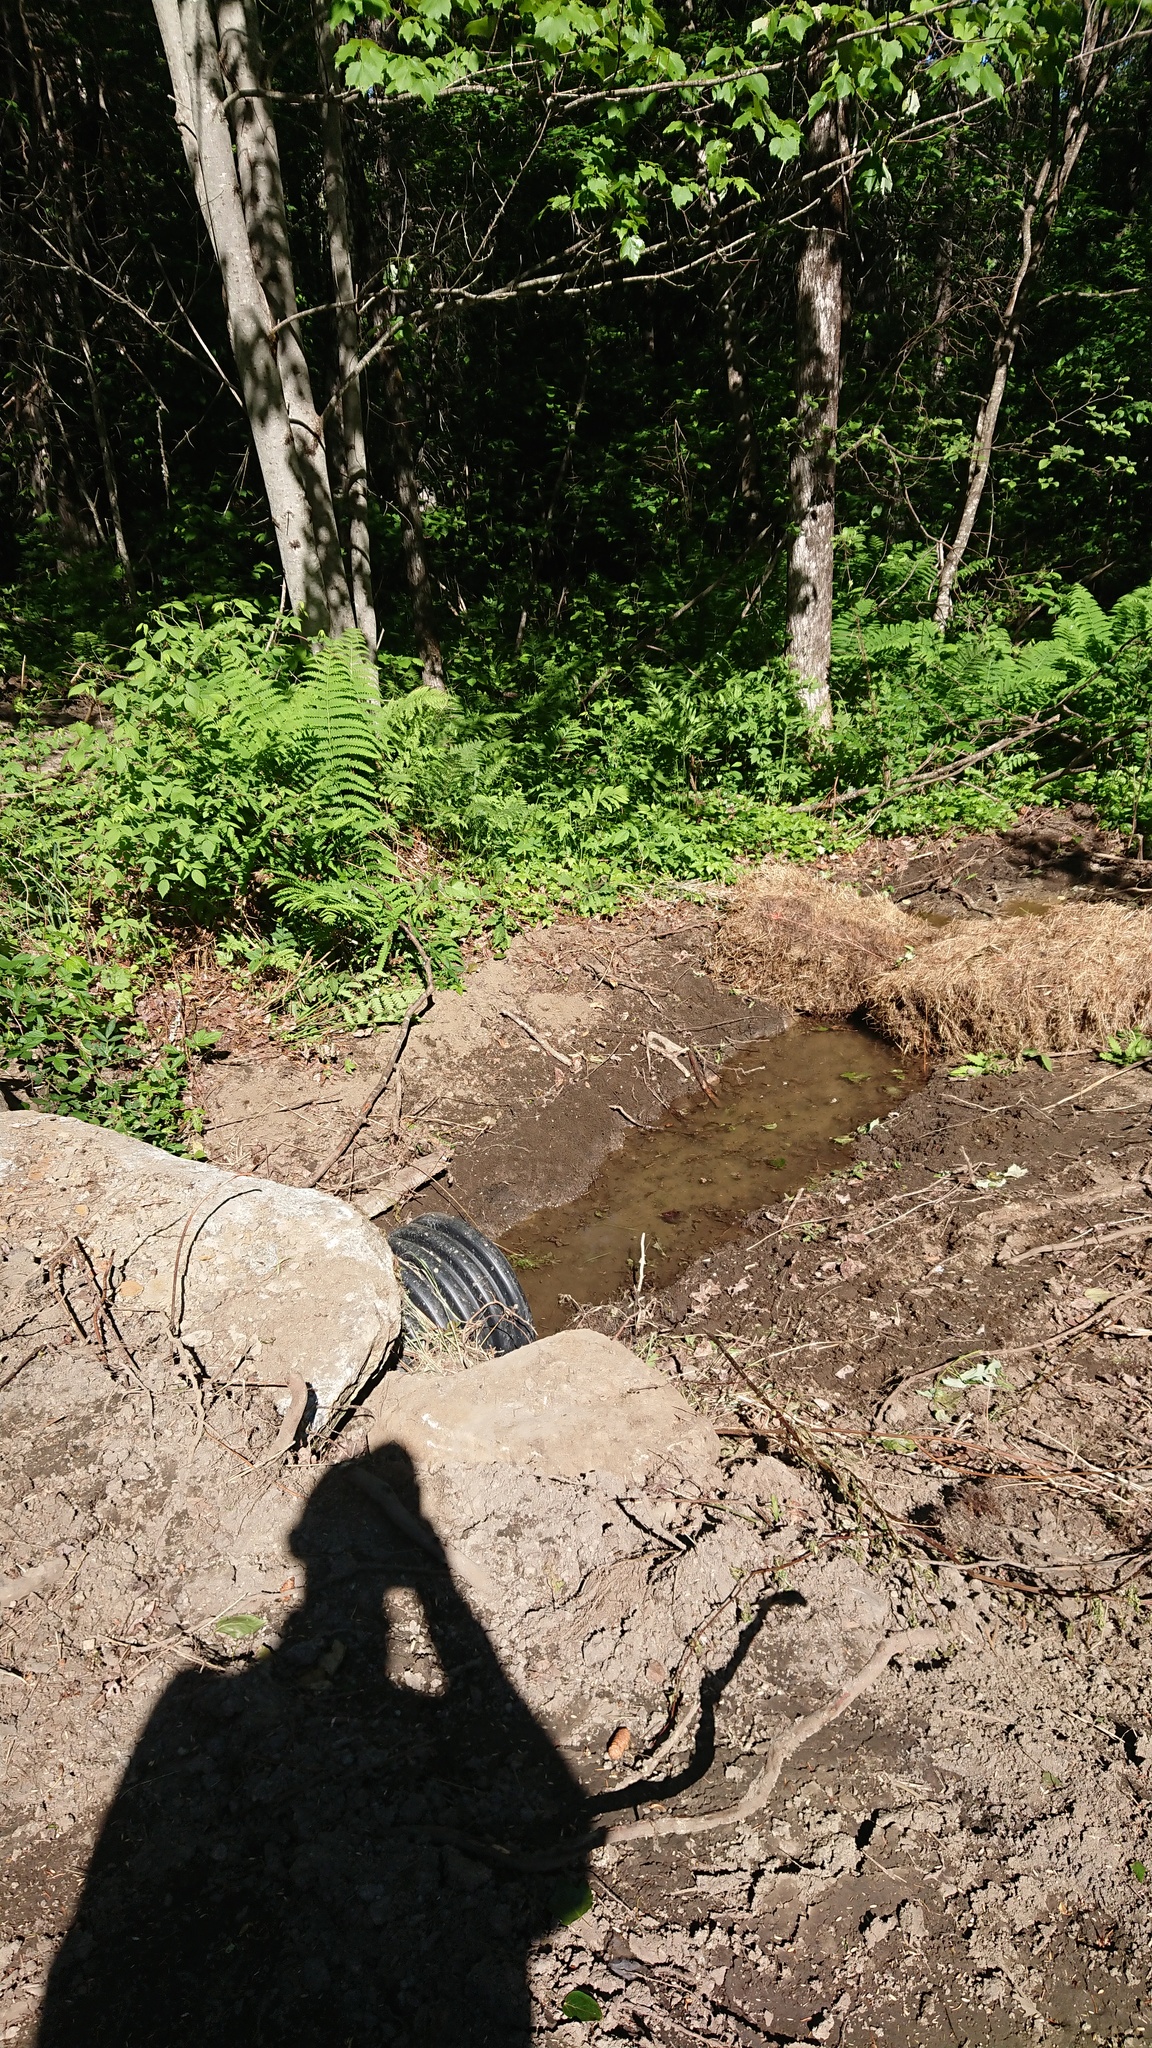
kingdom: Animalia
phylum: Arthropoda
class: Insecta
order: Odonata
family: Libellulidae
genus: Ladona
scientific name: Ladona julia
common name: Chalk-fronted corporal
